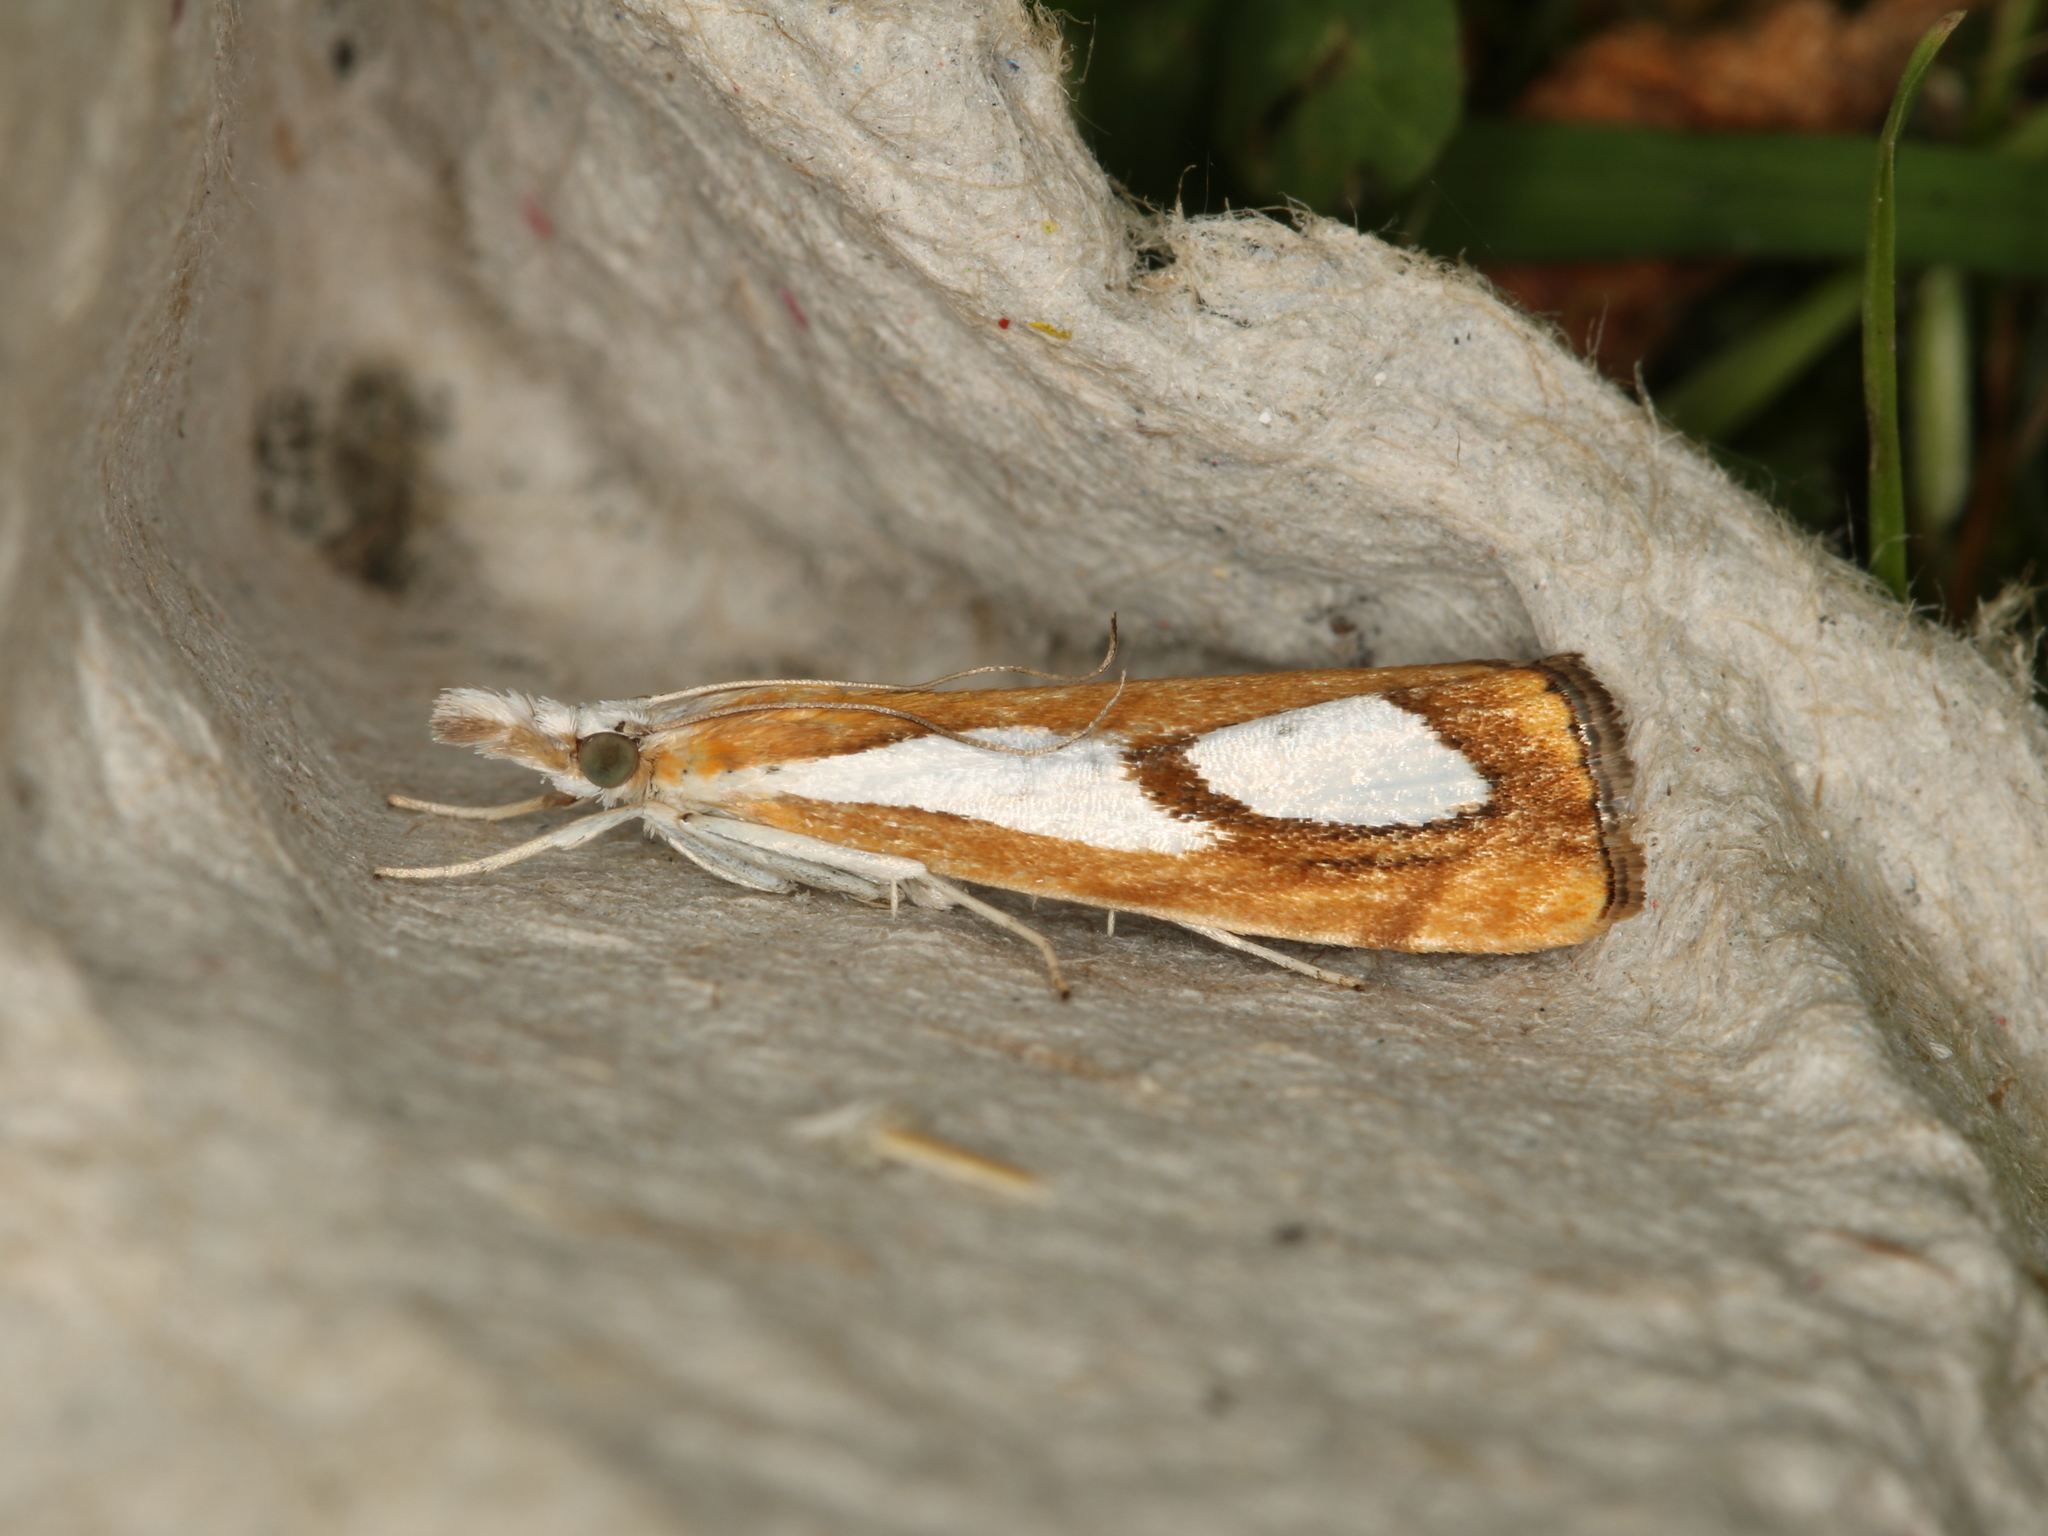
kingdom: Animalia
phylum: Arthropoda
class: Insecta
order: Lepidoptera
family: Crambidae
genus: Catoptria
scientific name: Catoptria pinella
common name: Pearl grass-veneer
